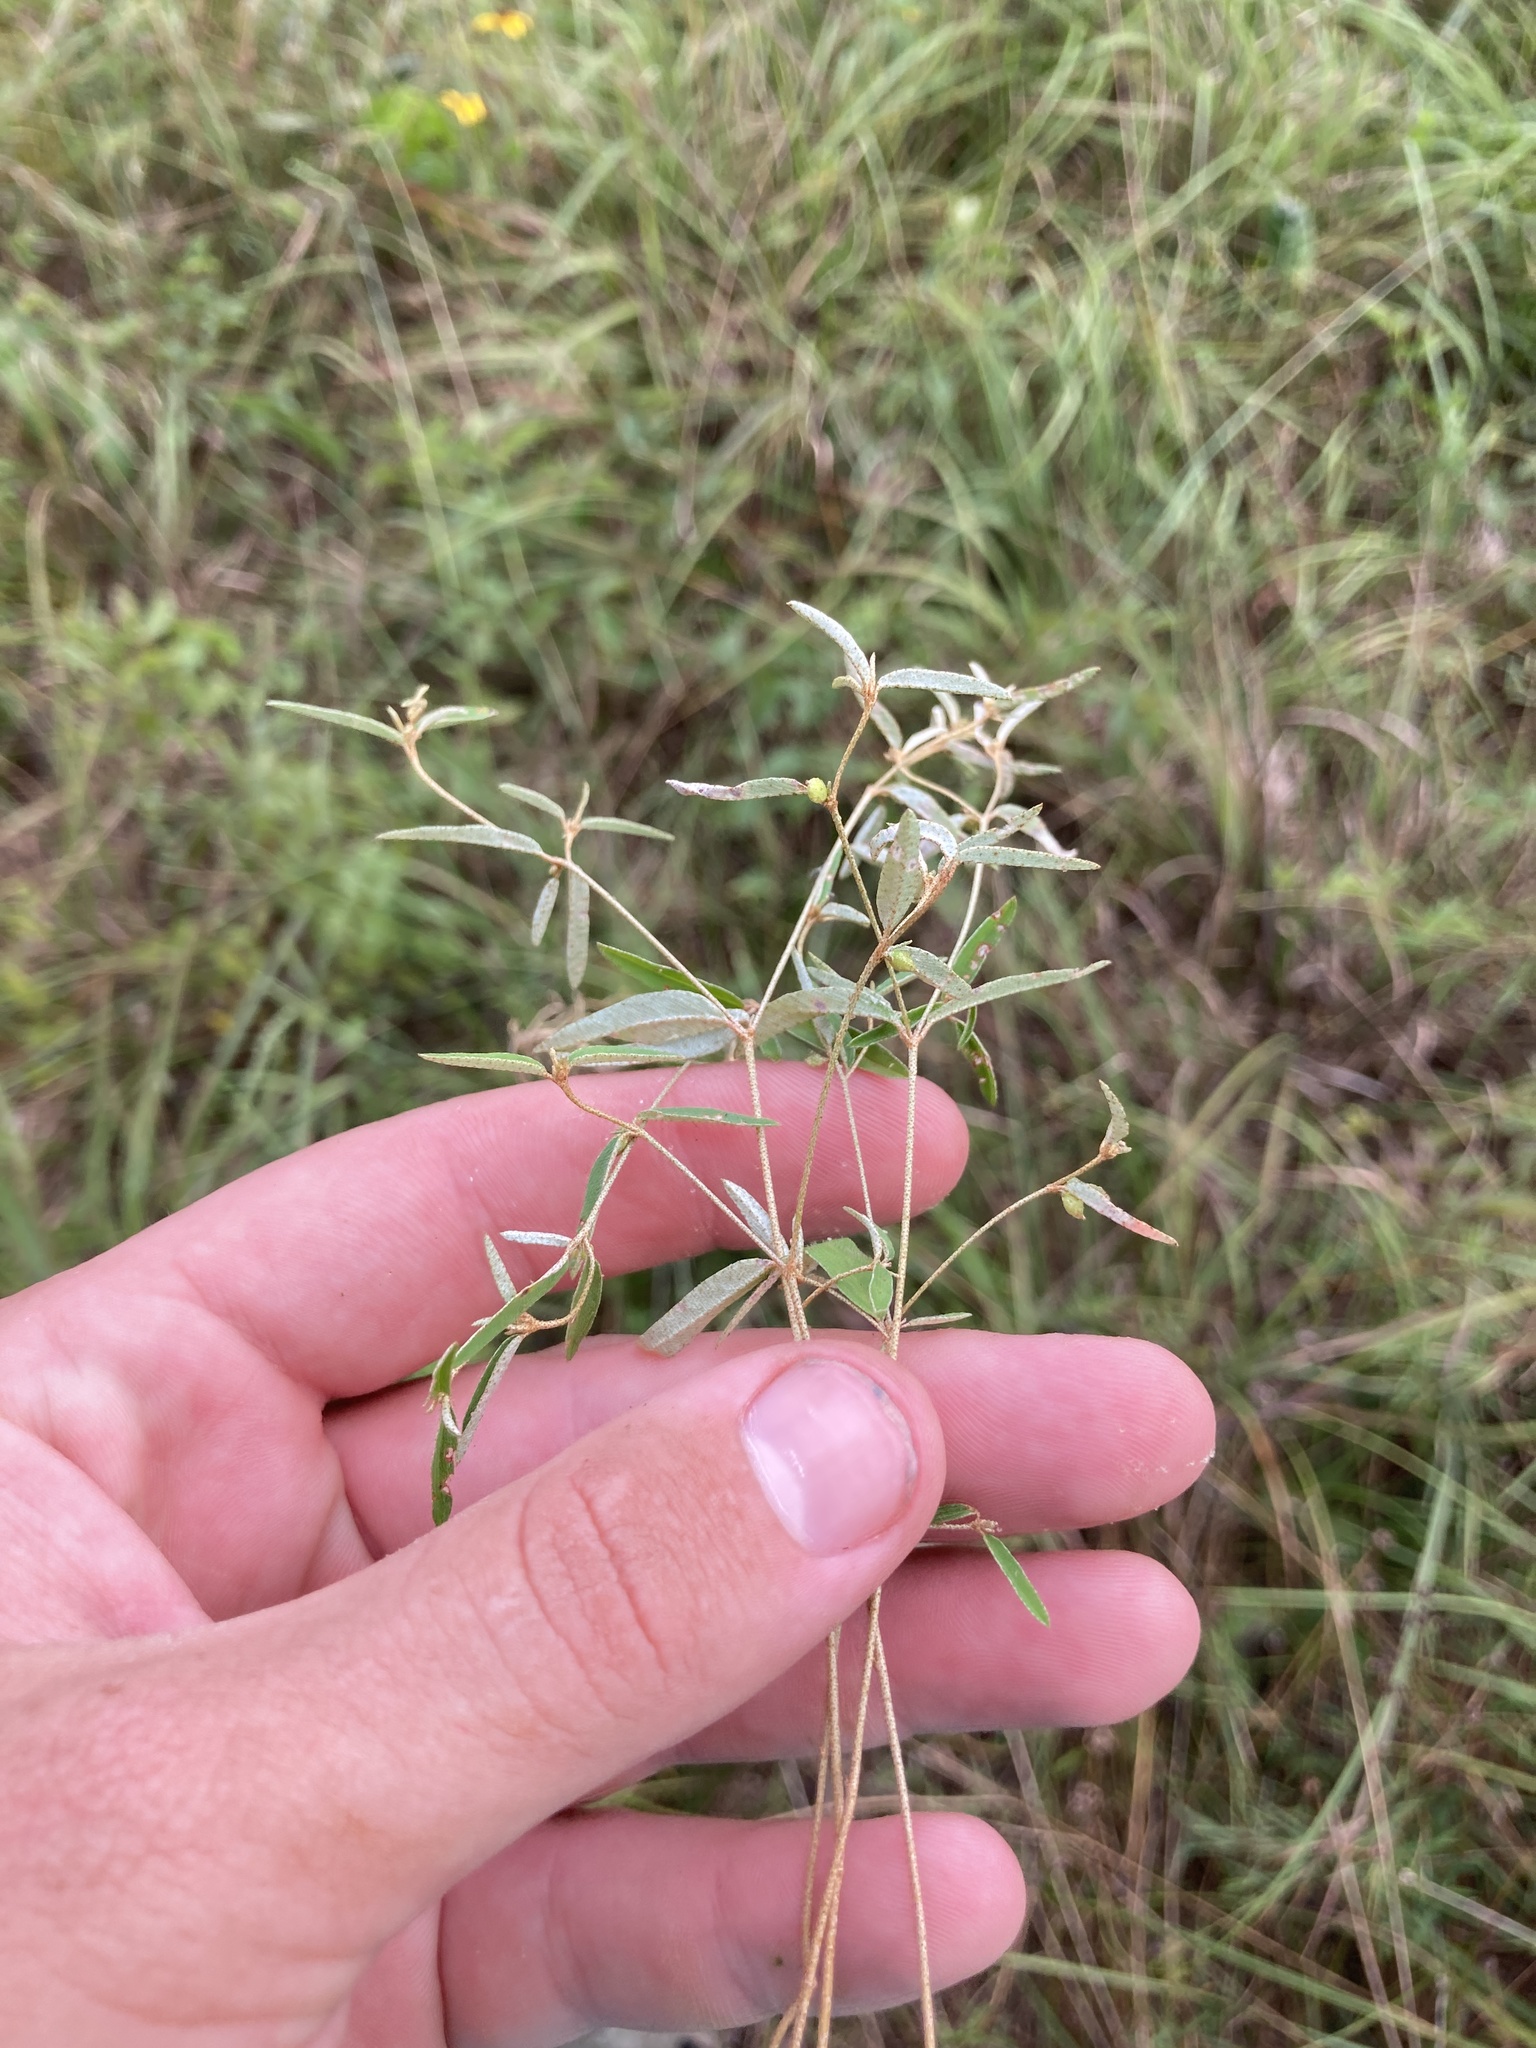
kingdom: Plantae
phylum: Tracheophyta
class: Magnoliopsida
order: Malpighiales
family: Euphorbiaceae
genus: Croton
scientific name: Croton michauxii
